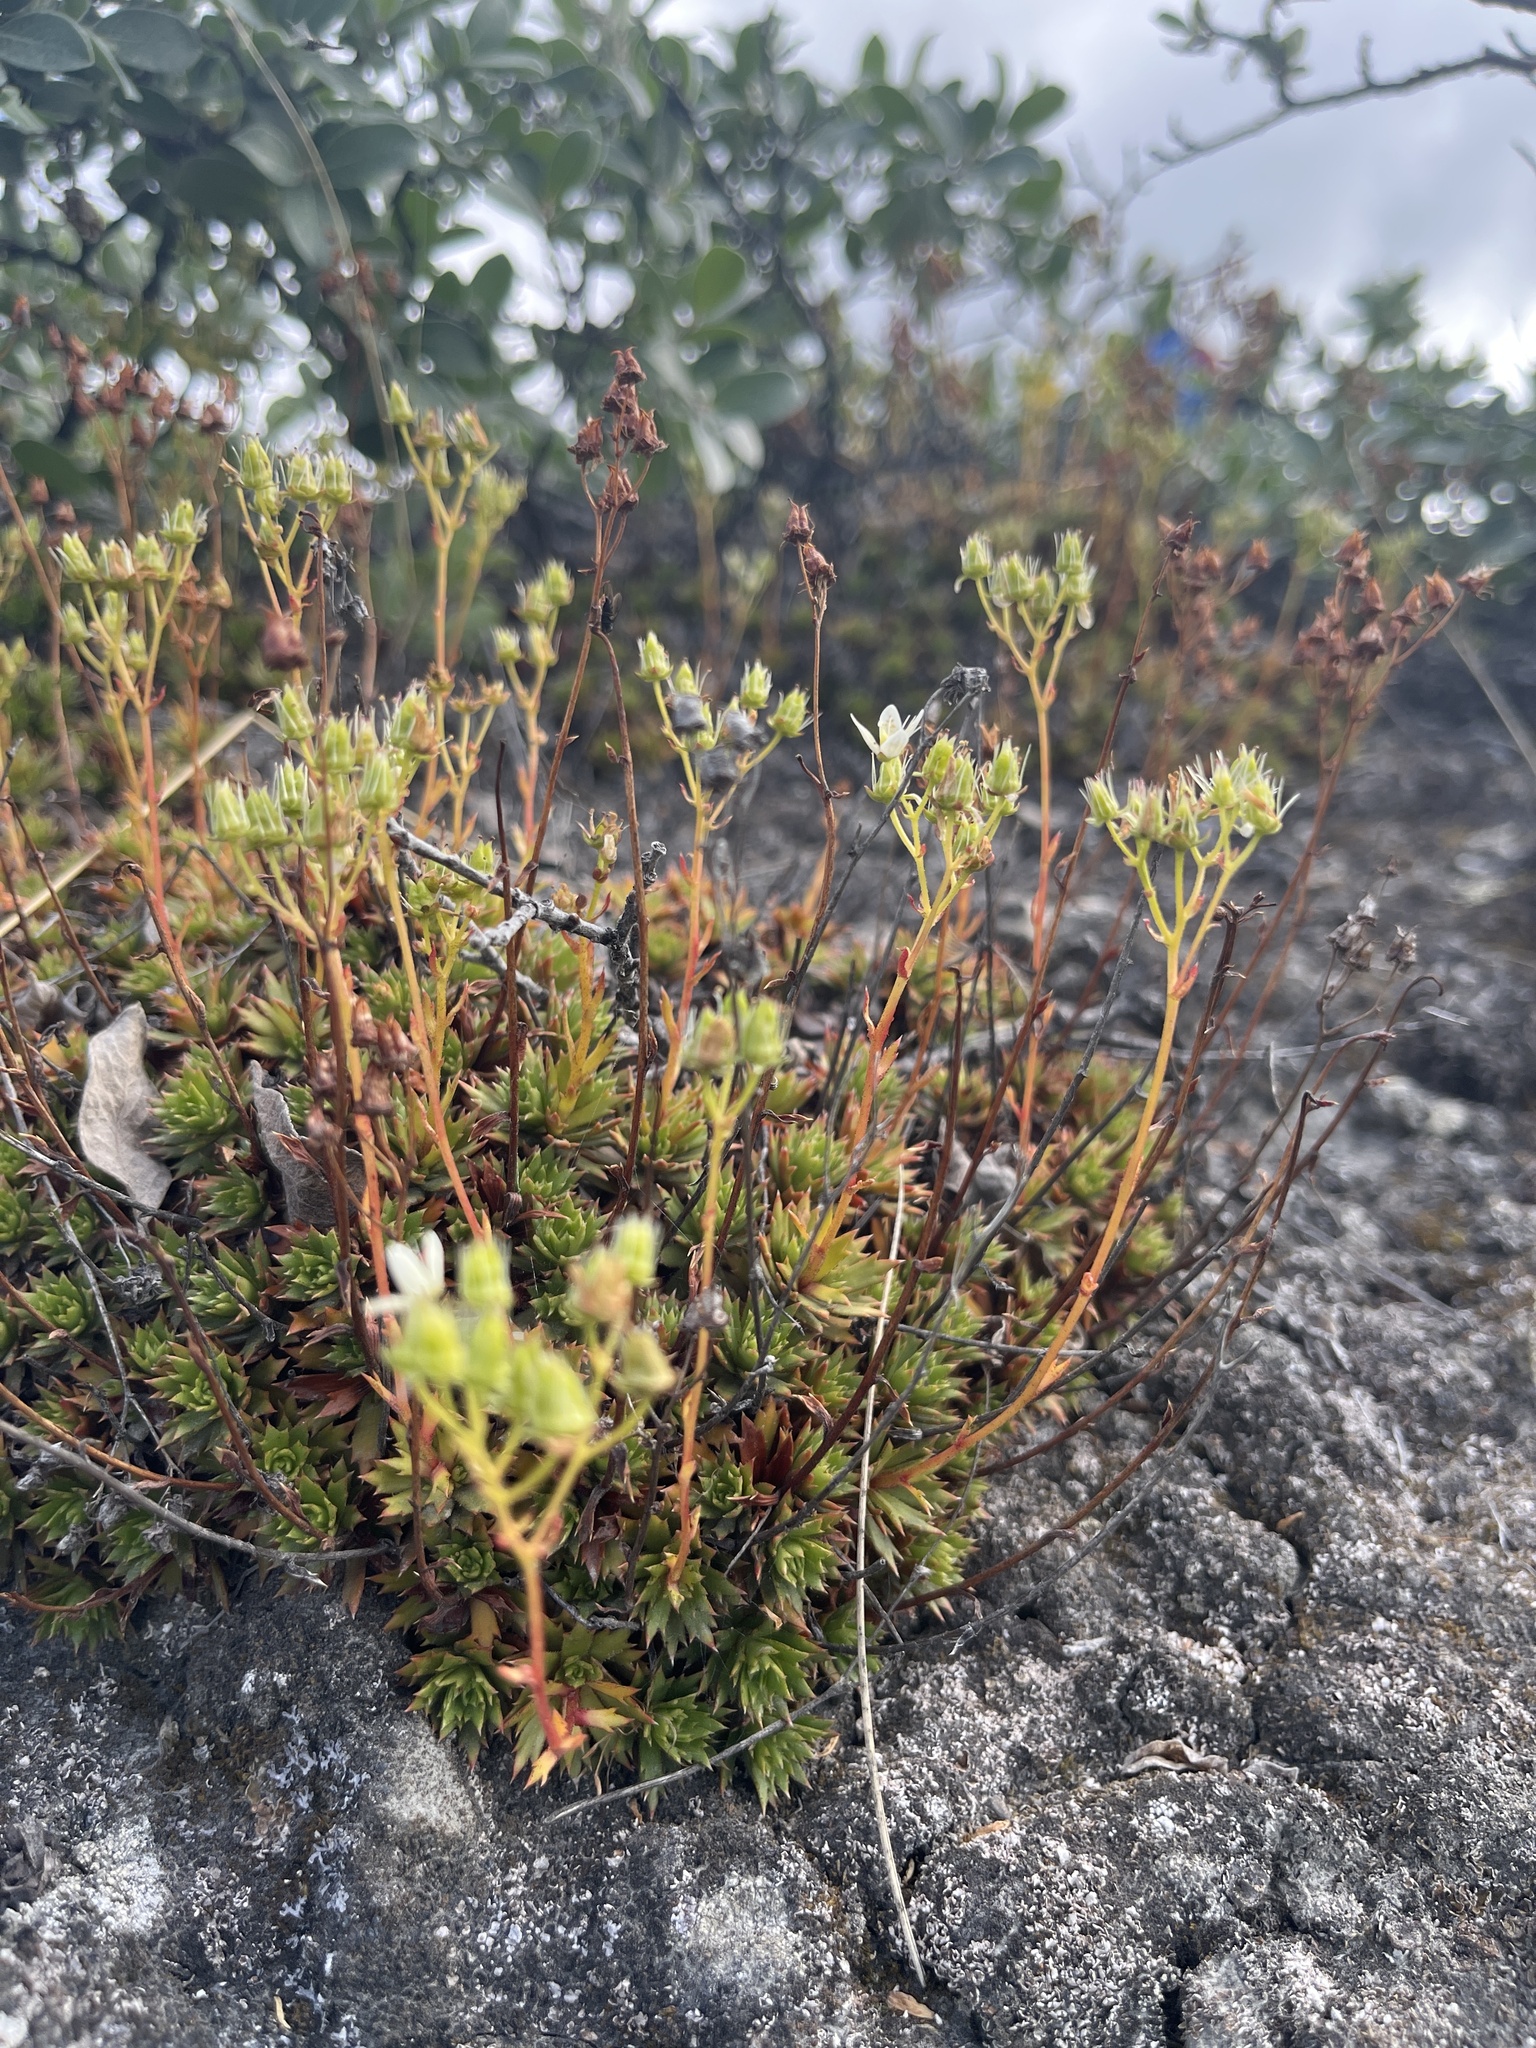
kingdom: Plantae
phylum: Tracheophyta
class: Magnoliopsida
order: Saxifragales
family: Saxifragaceae
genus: Saxifraga
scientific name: Saxifraga tricuspidata
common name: Prickly saxifrage
